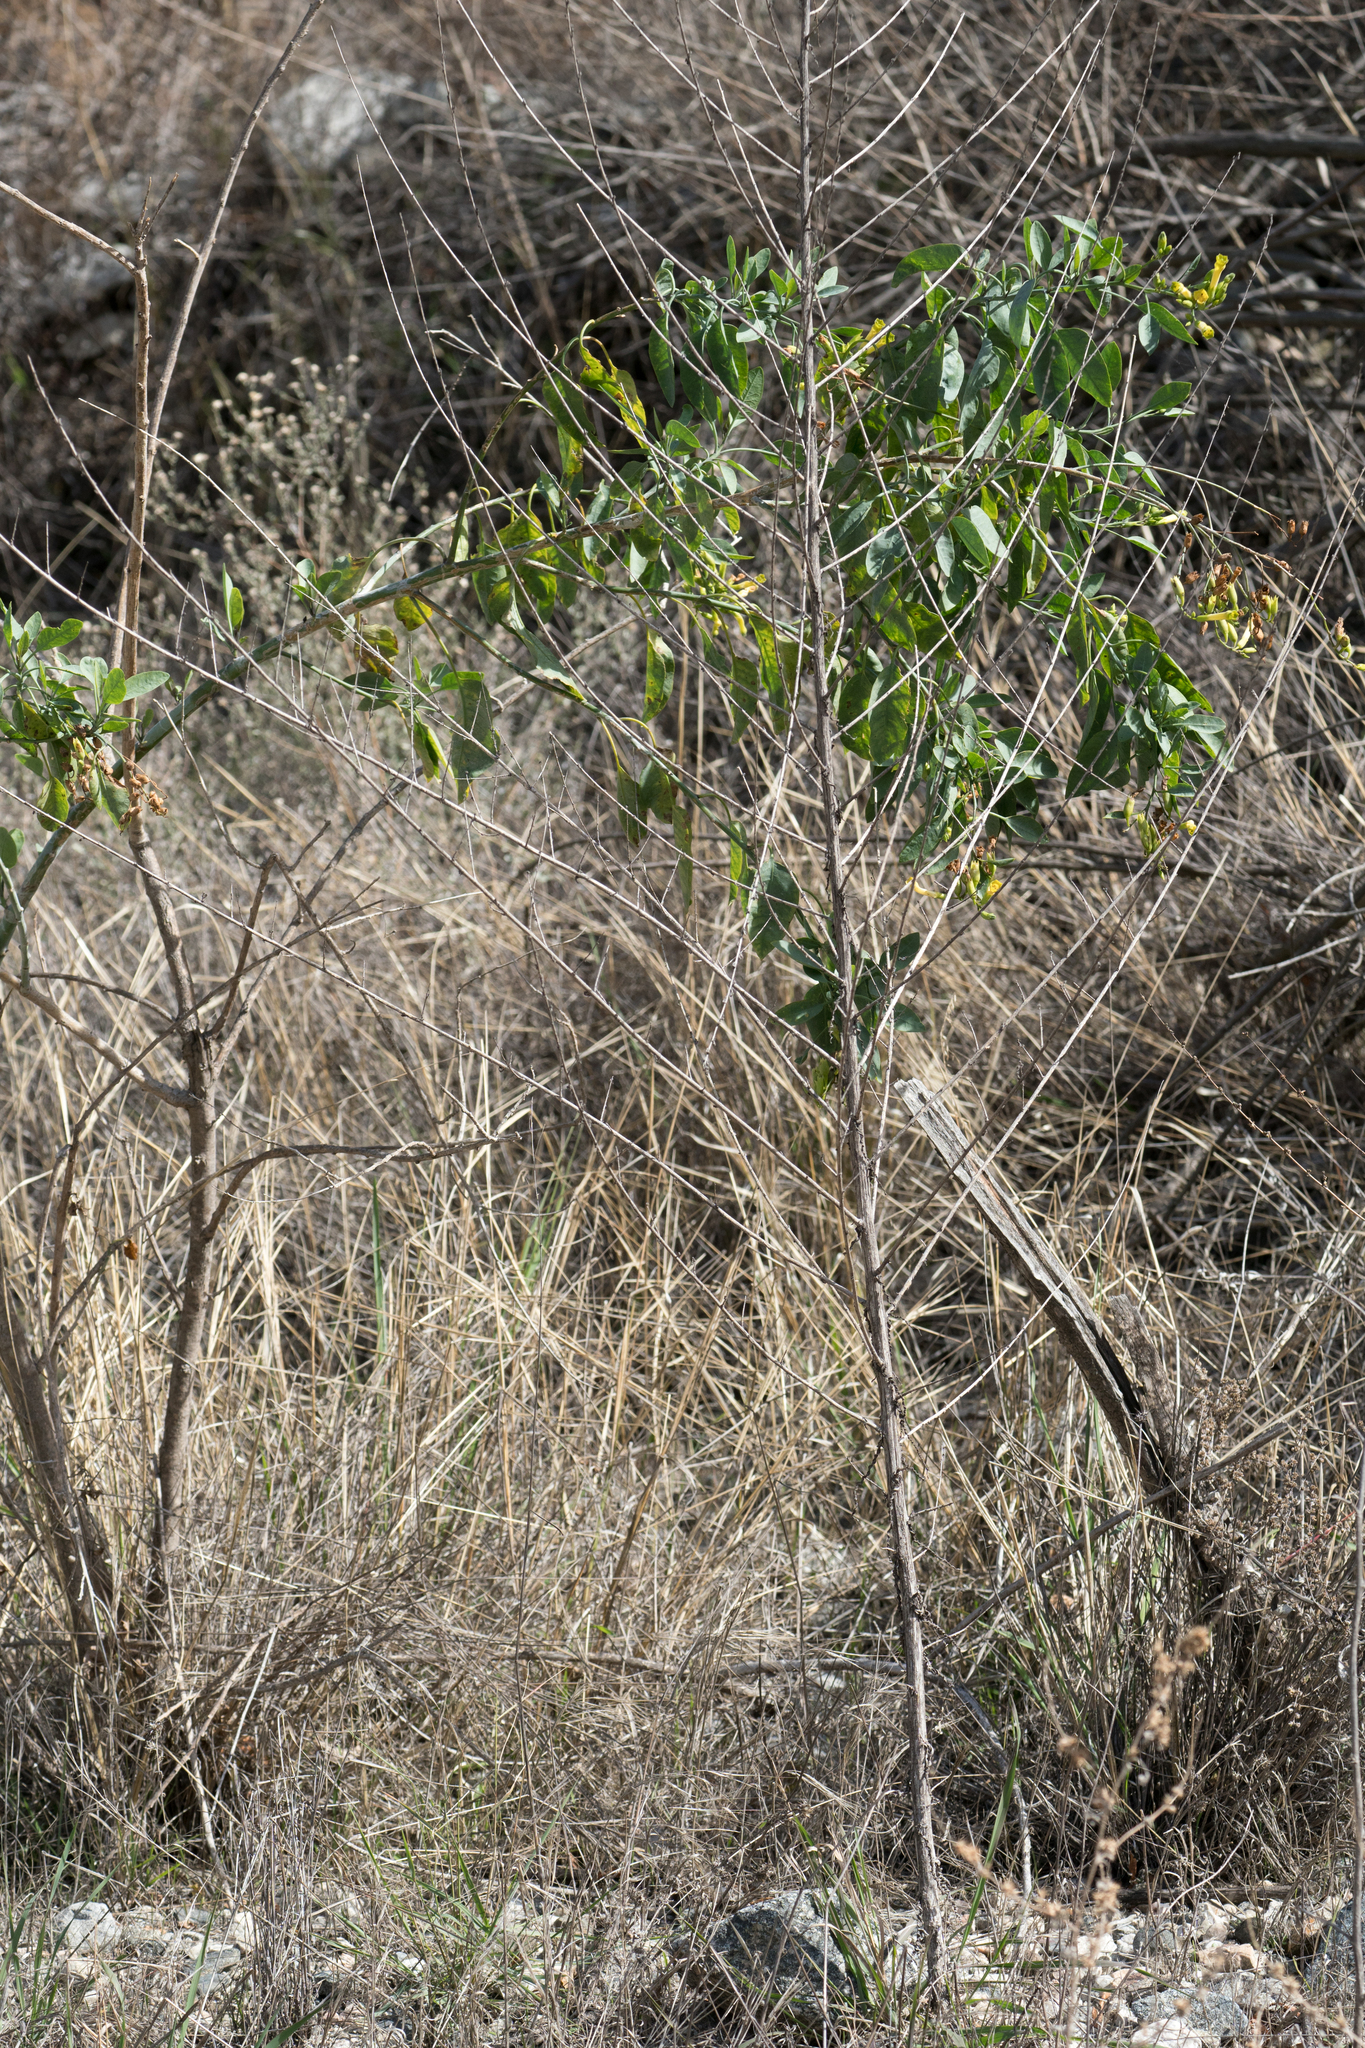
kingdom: Plantae
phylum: Tracheophyta
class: Magnoliopsida
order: Solanales
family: Solanaceae
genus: Nicotiana
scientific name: Nicotiana glauca
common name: Tree tobacco
